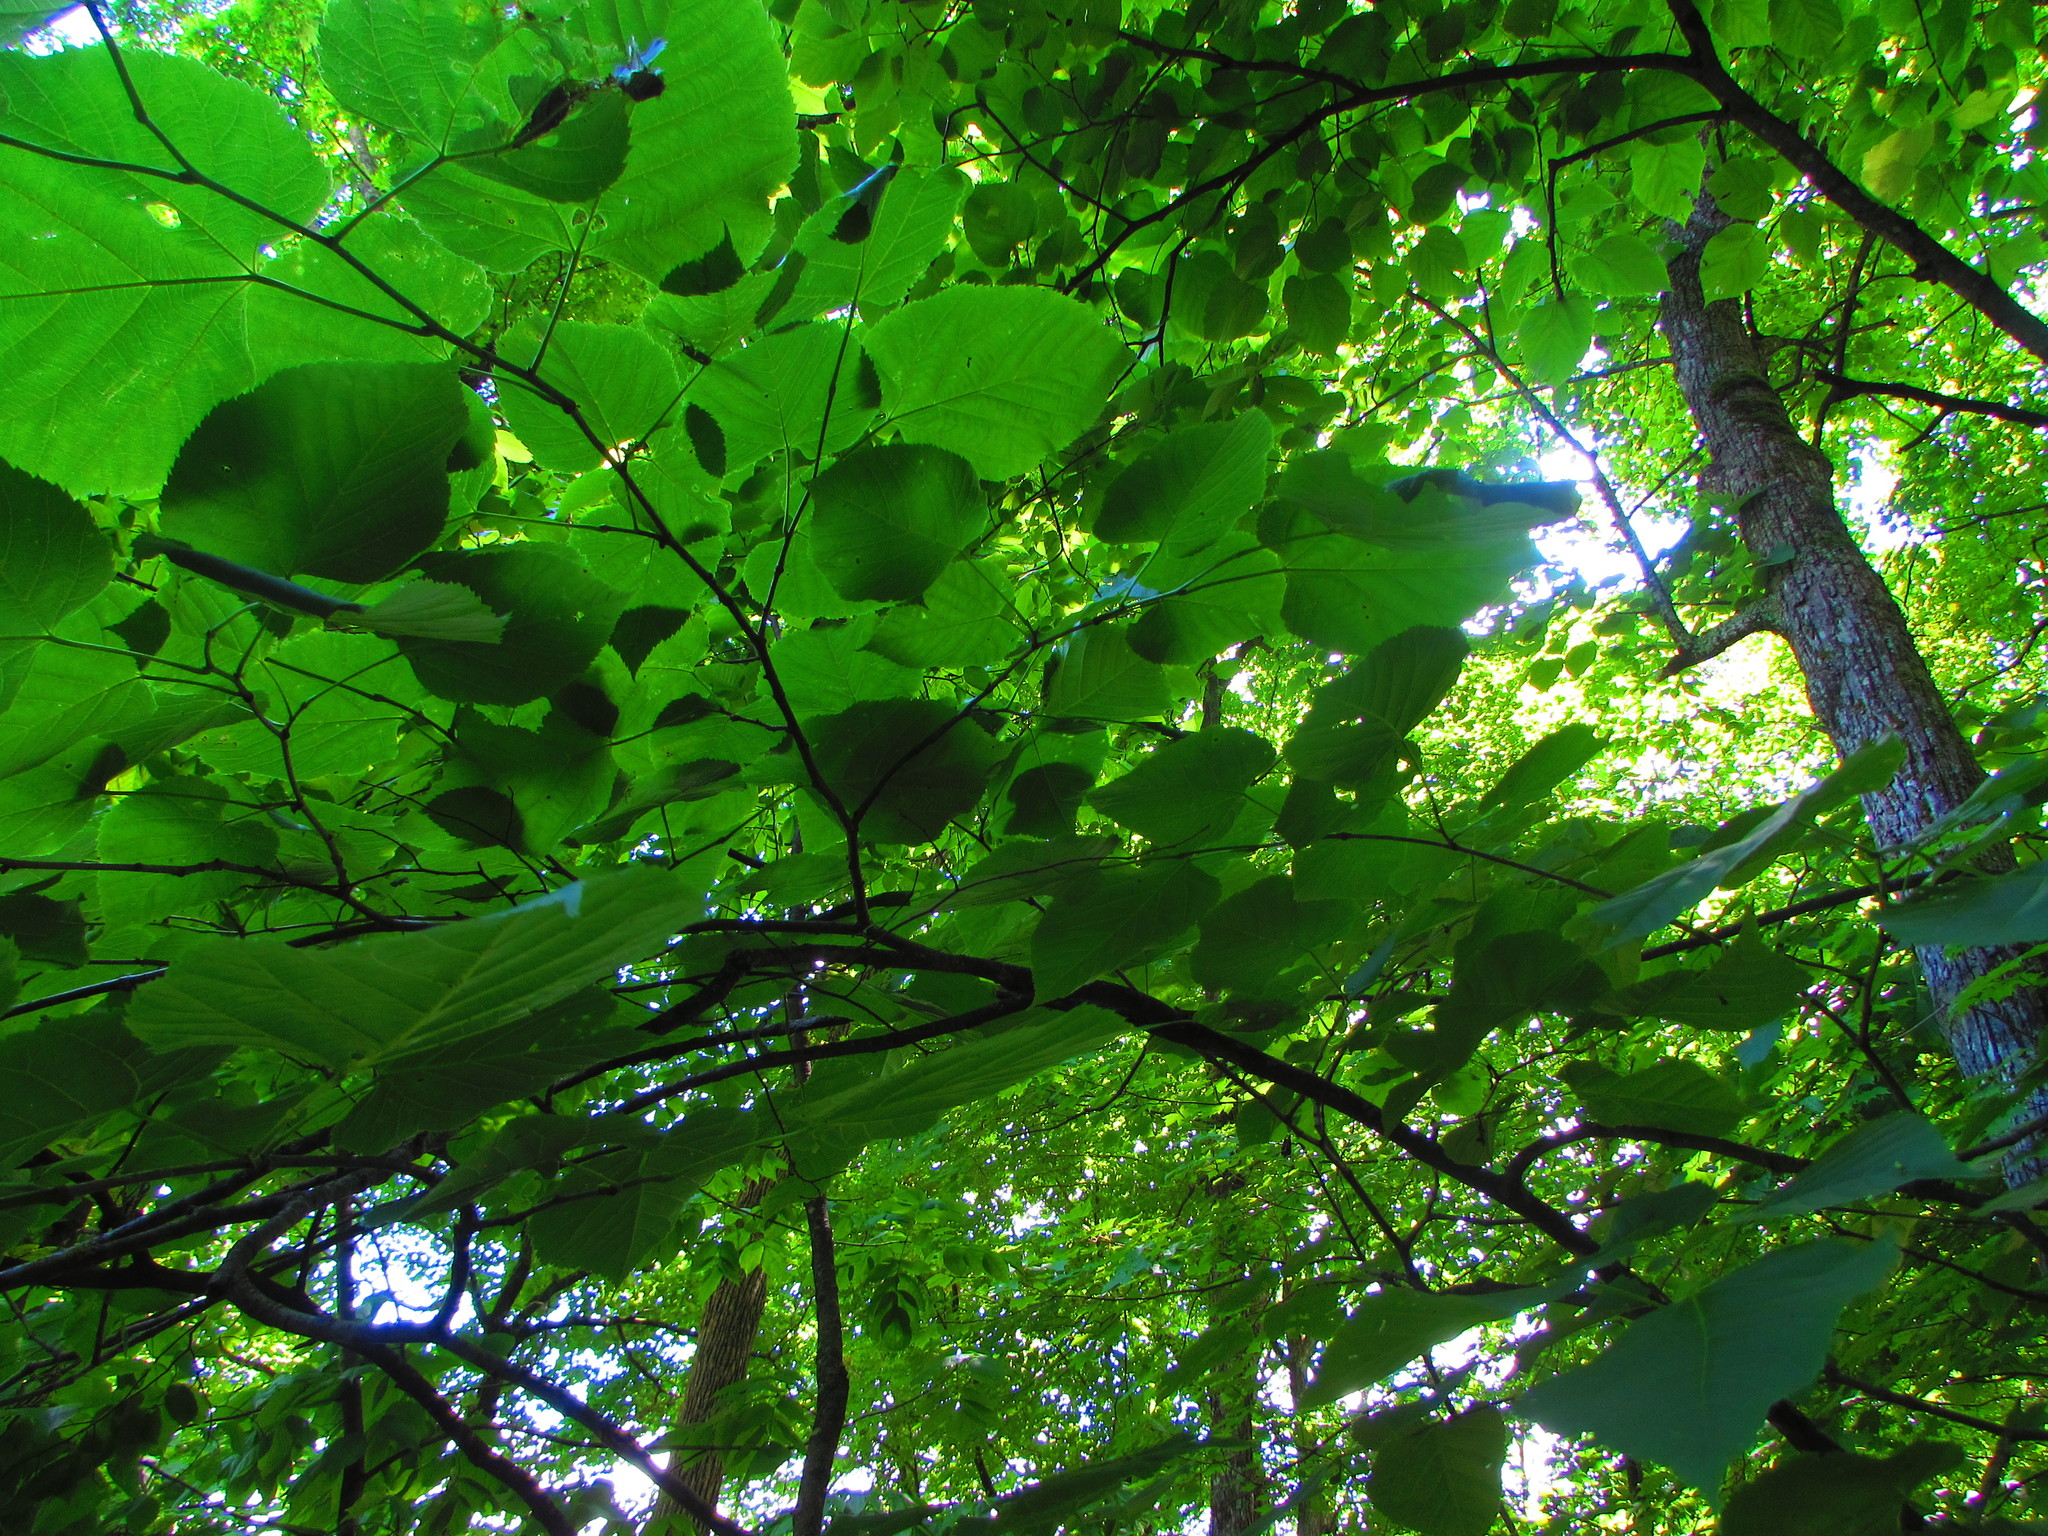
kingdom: Plantae
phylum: Tracheophyta
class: Magnoliopsida
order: Malvales
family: Malvaceae
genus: Tilia
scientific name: Tilia americana
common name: Basswood
